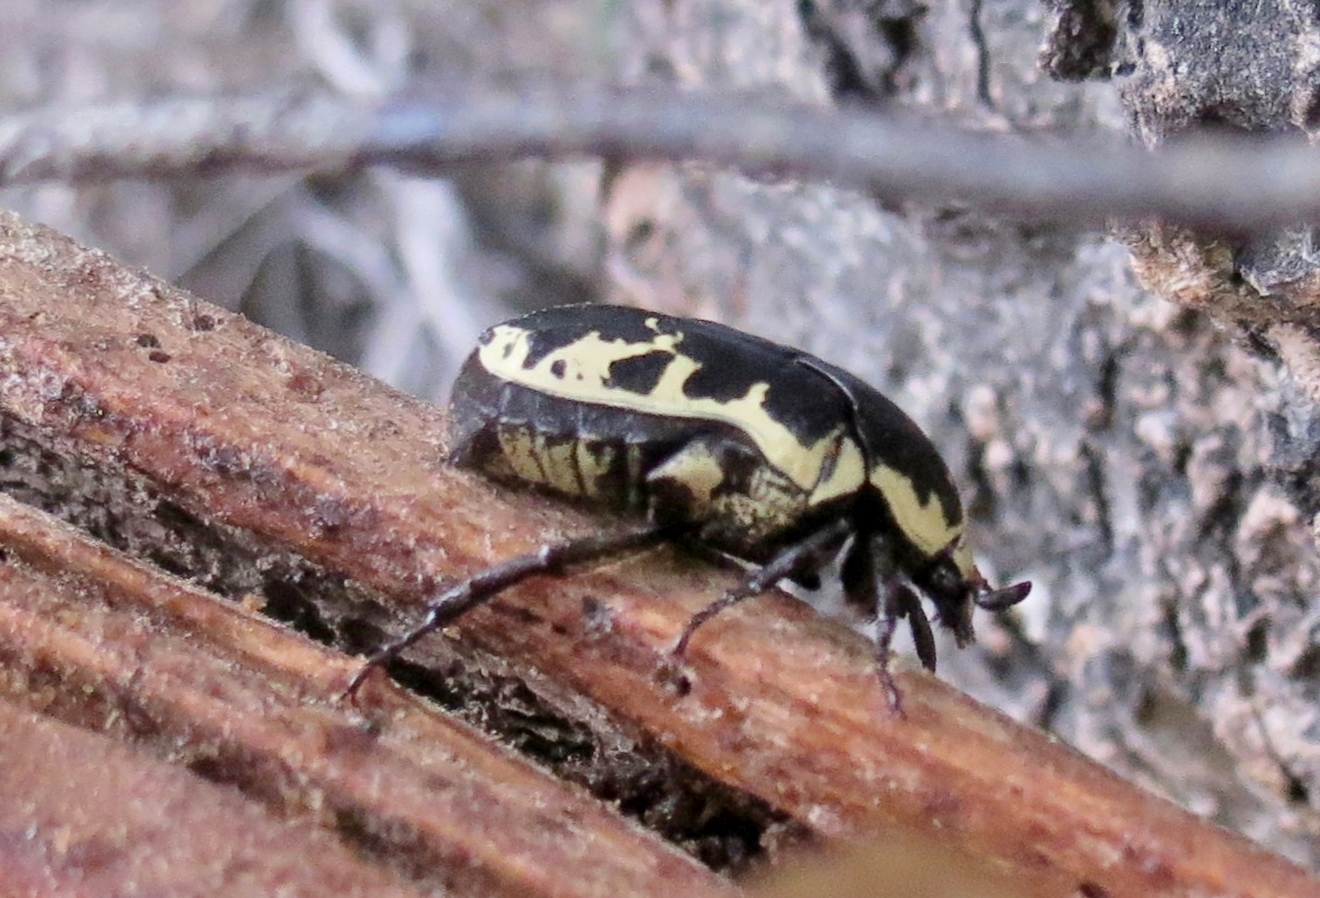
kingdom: Animalia
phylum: Arthropoda
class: Insecta
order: Coleoptera
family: Scarabaeidae
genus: Gymnetis
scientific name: Gymnetis thula
